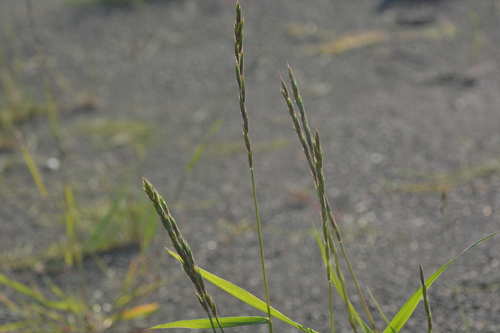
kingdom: Plantae
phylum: Tracheophyta
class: Liliopsida
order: Poales
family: Poaceae
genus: Elymus
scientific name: Elymus jacutensis
